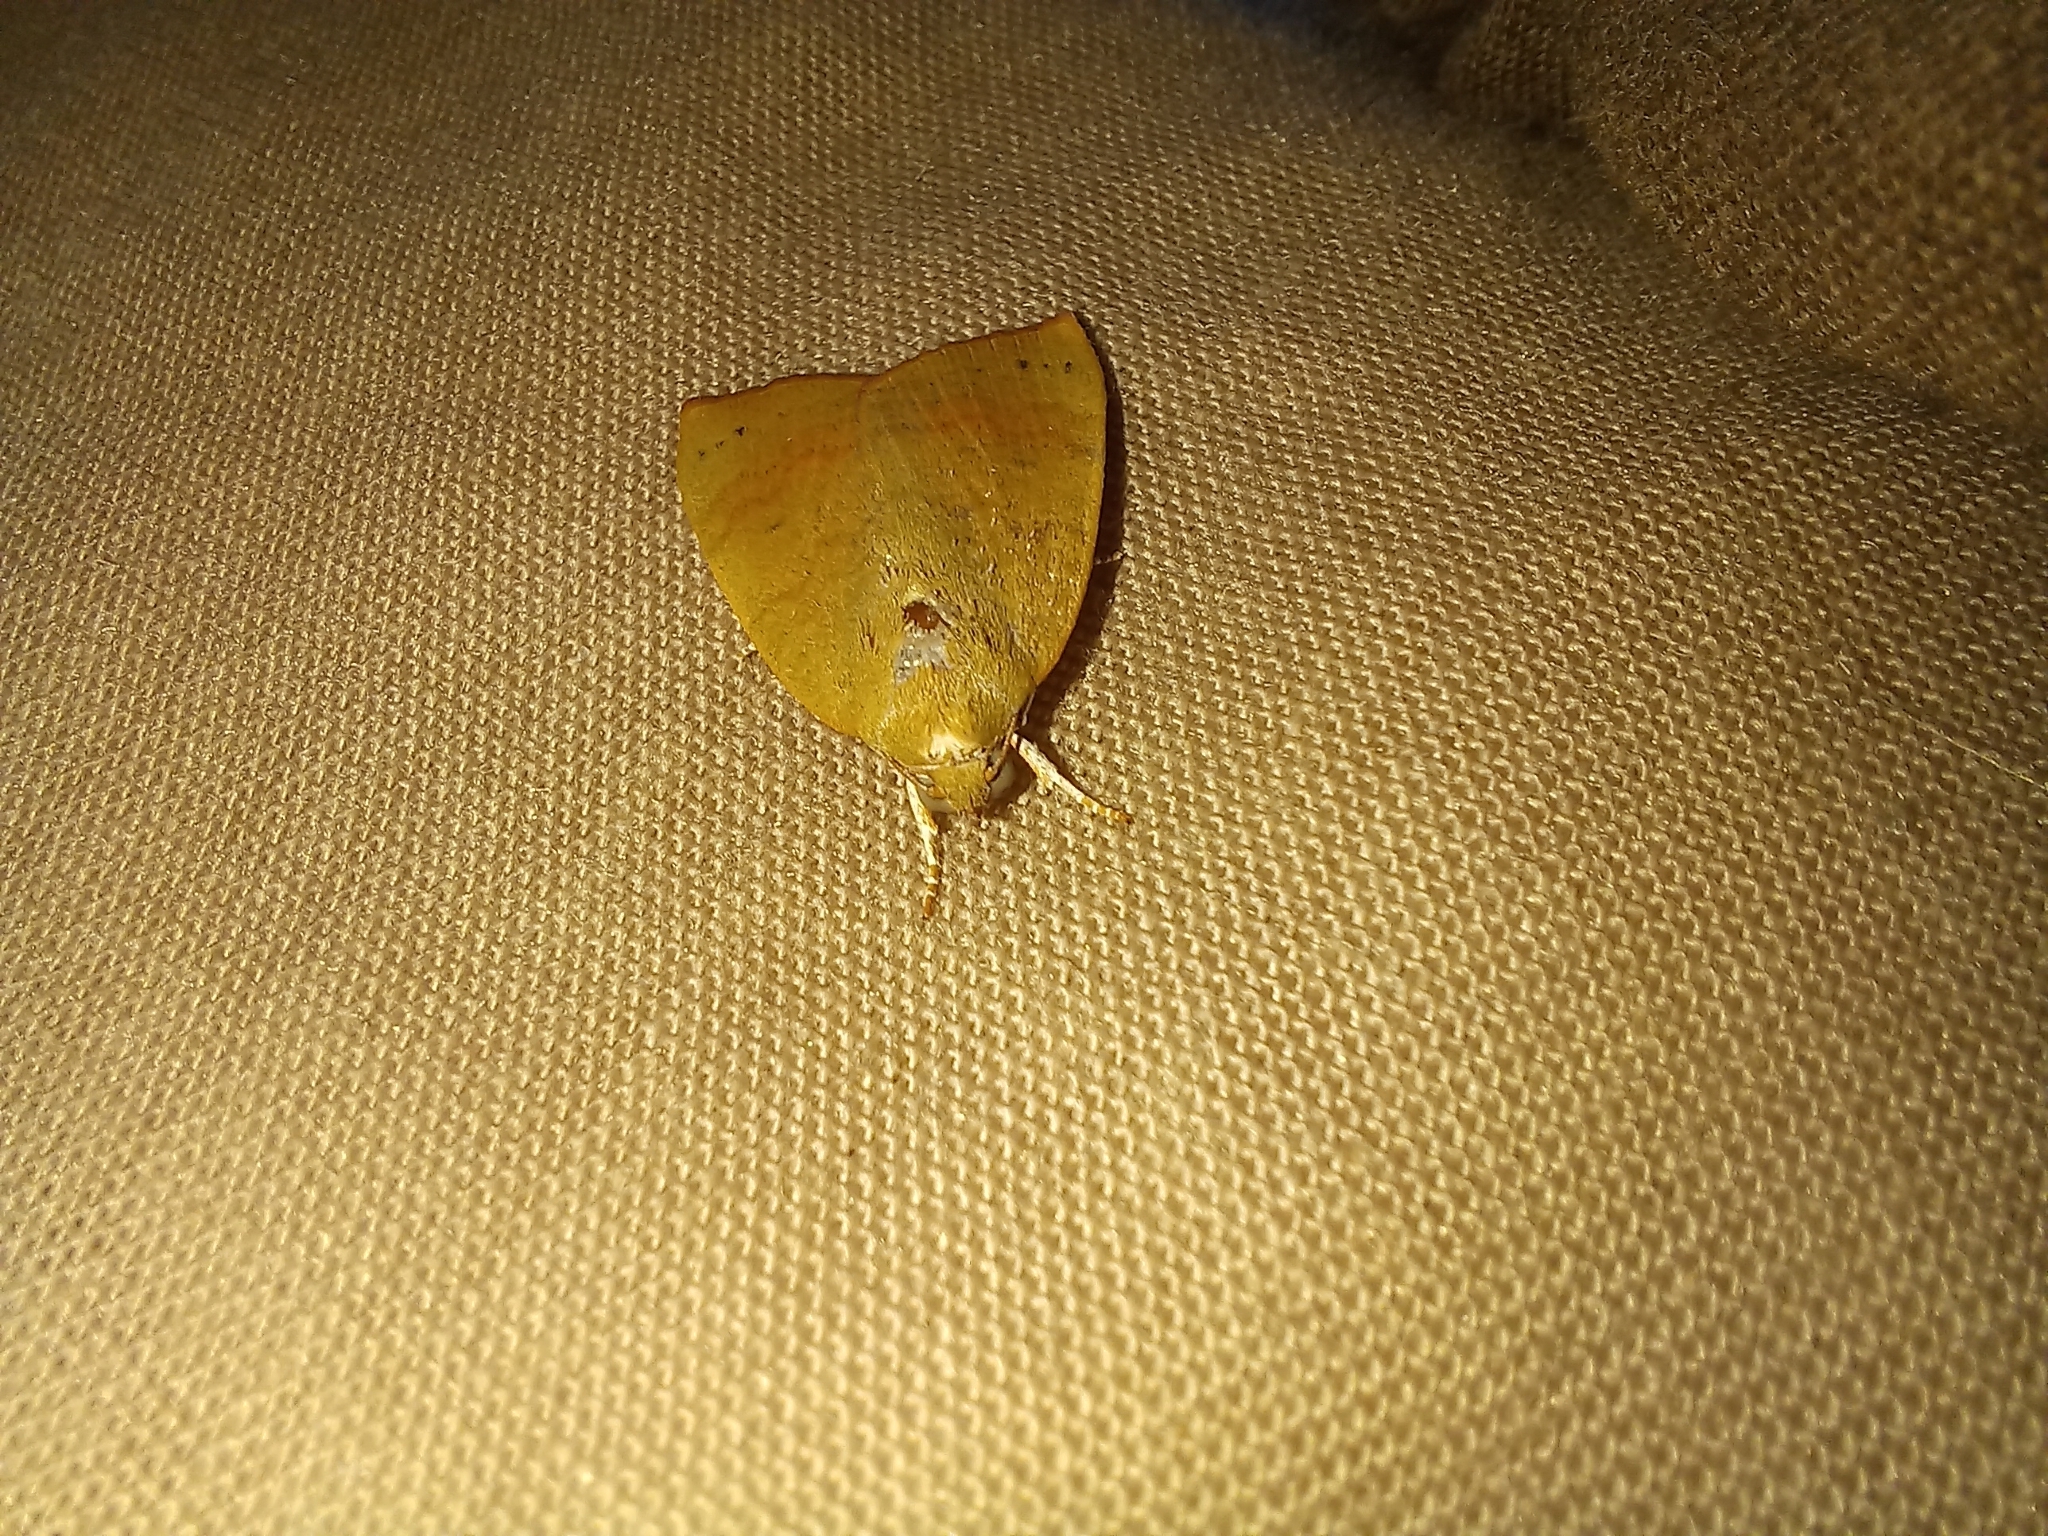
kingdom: Animalia
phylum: Arthropoda
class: Insecta
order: Lepidoptera
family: Nolidae
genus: Maurilia
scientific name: Maurilia arcuata
